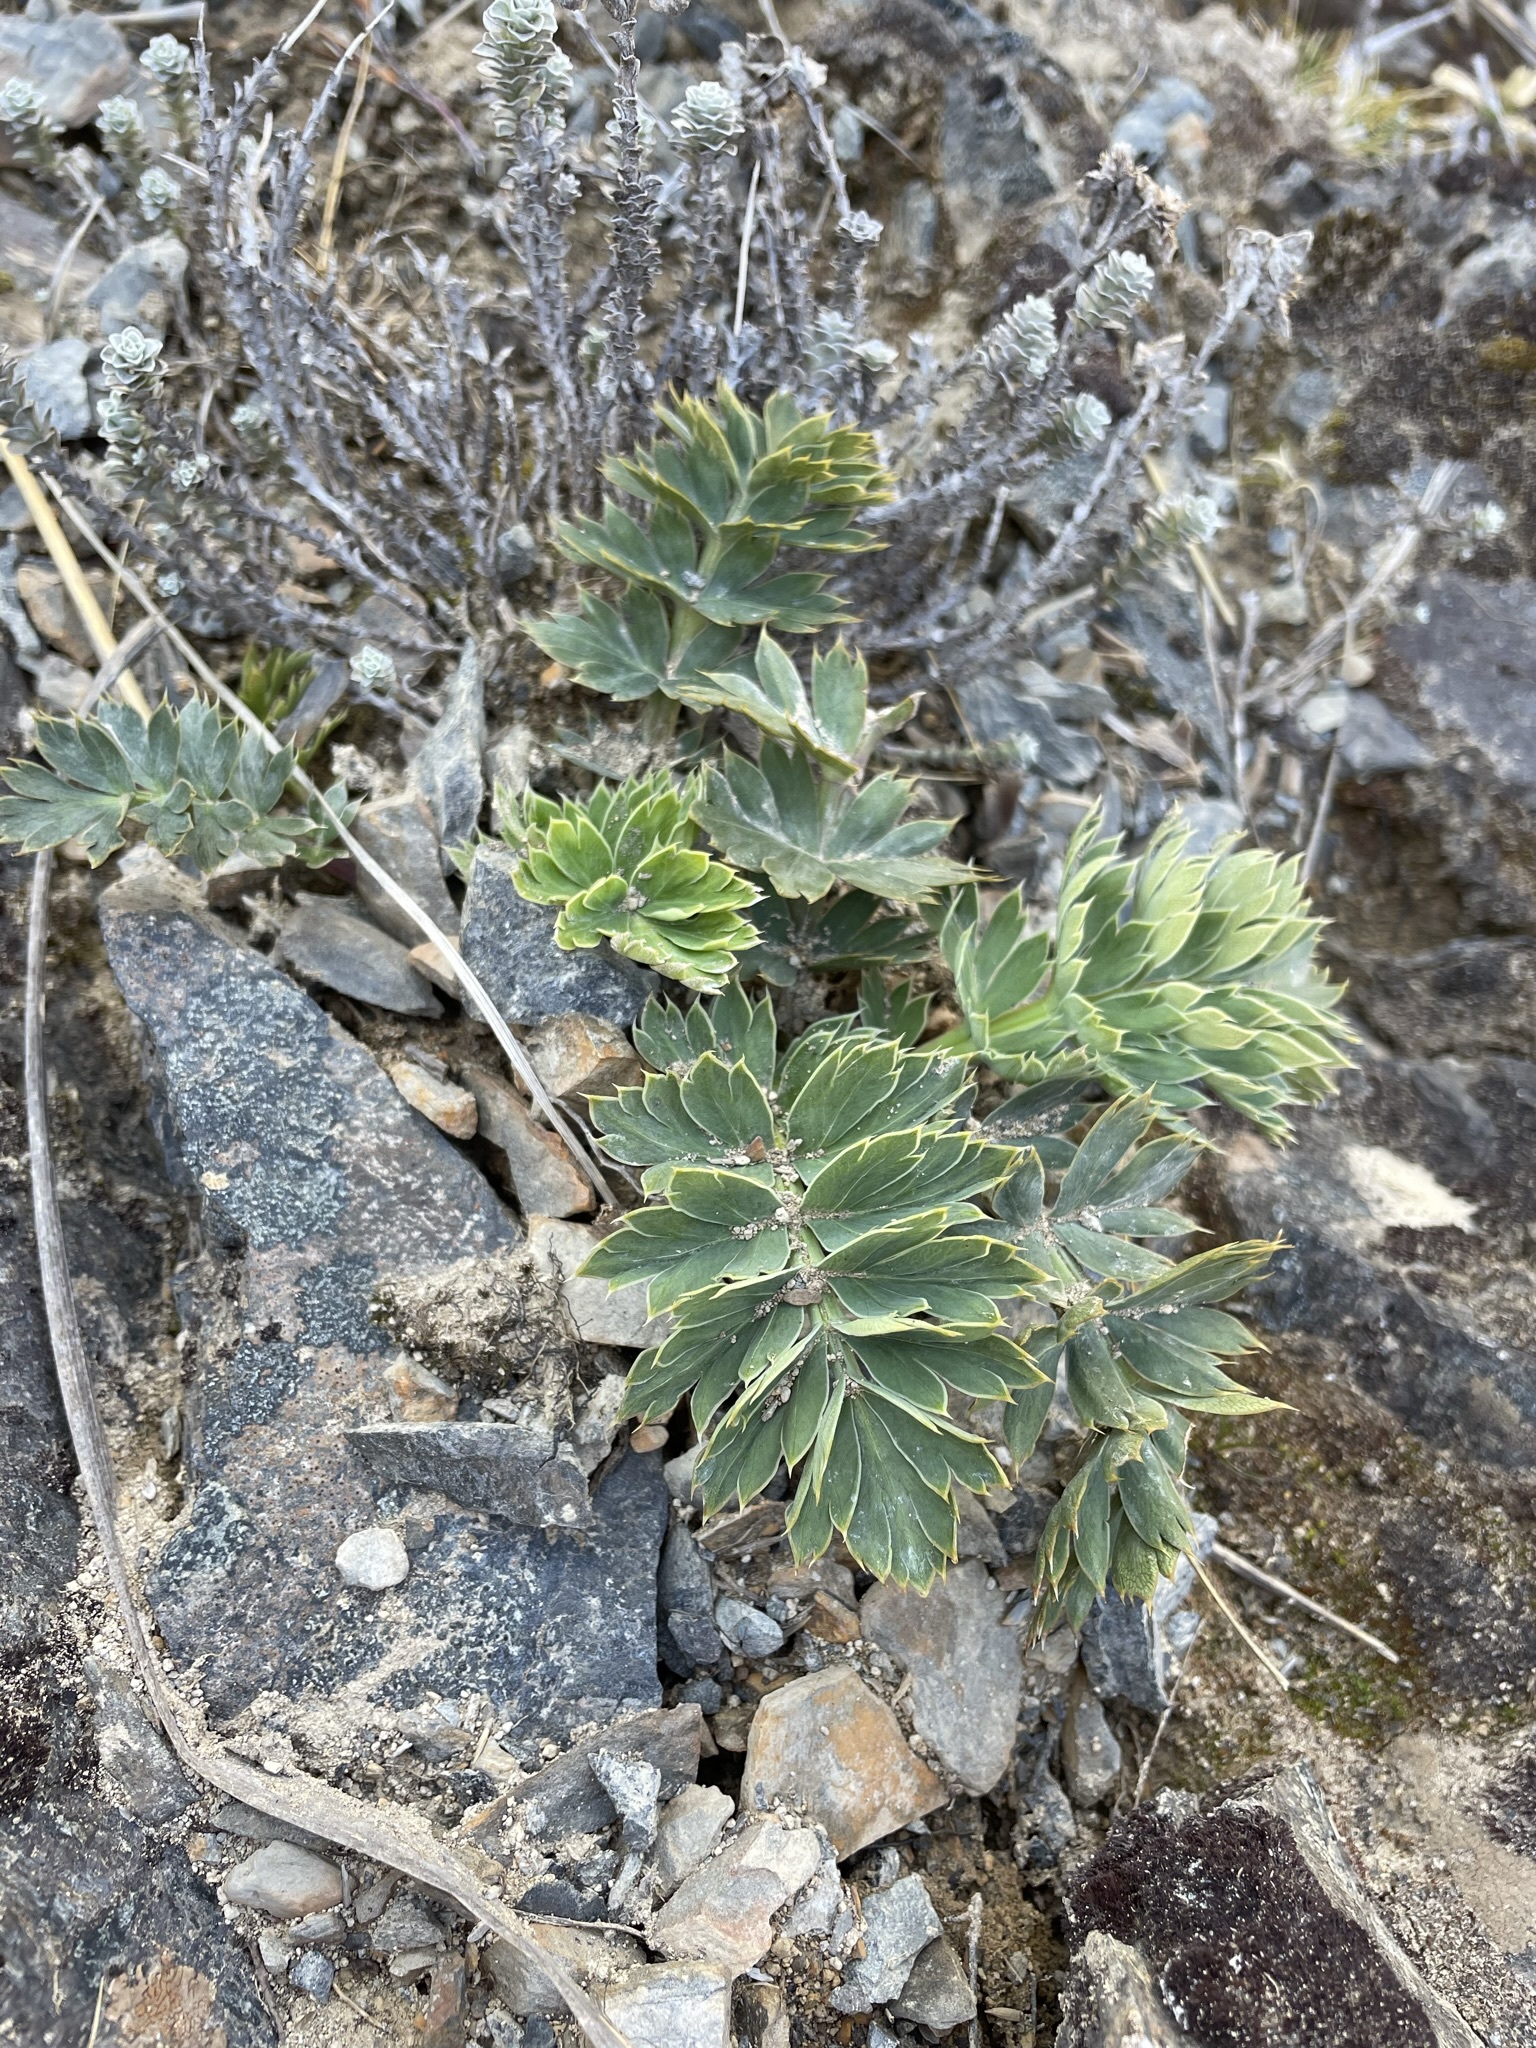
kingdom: Plantae
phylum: Tracheophyta
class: Magnoliopsida
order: Apiales
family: Apiaceae
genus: Anisotome
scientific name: Anisotome pilifera
